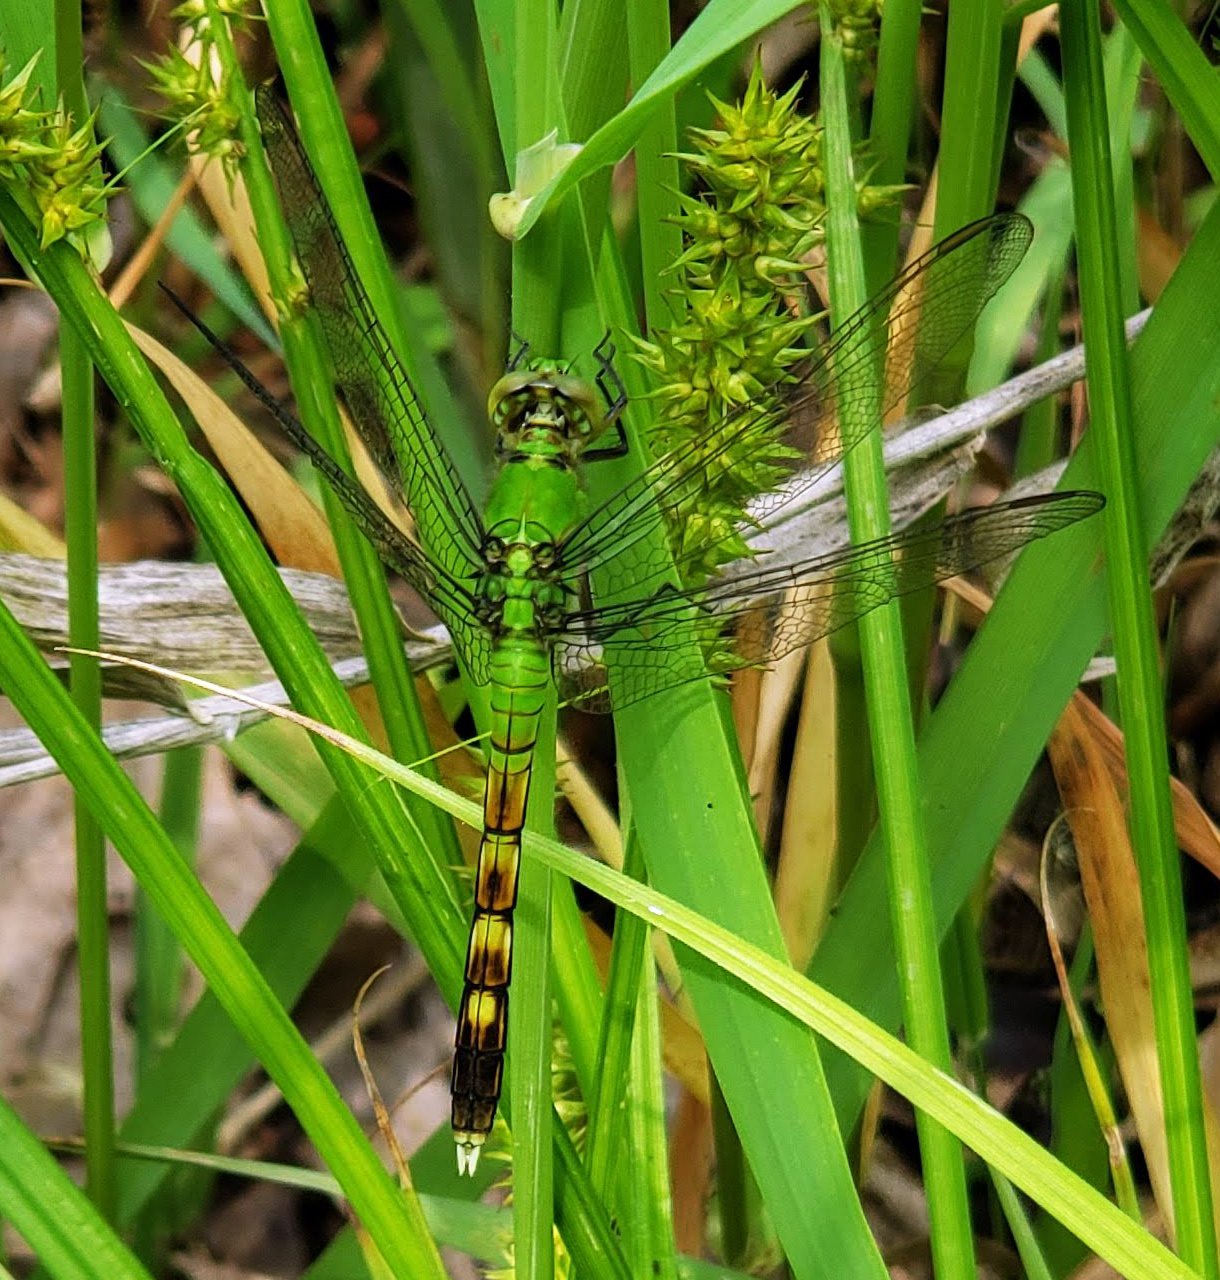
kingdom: Animalia
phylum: Arthropoda
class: Insecta
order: Odonata
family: Libellulidae
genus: Erythemis
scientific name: Erythemis simplicicollis
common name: Eastern pondhawk
